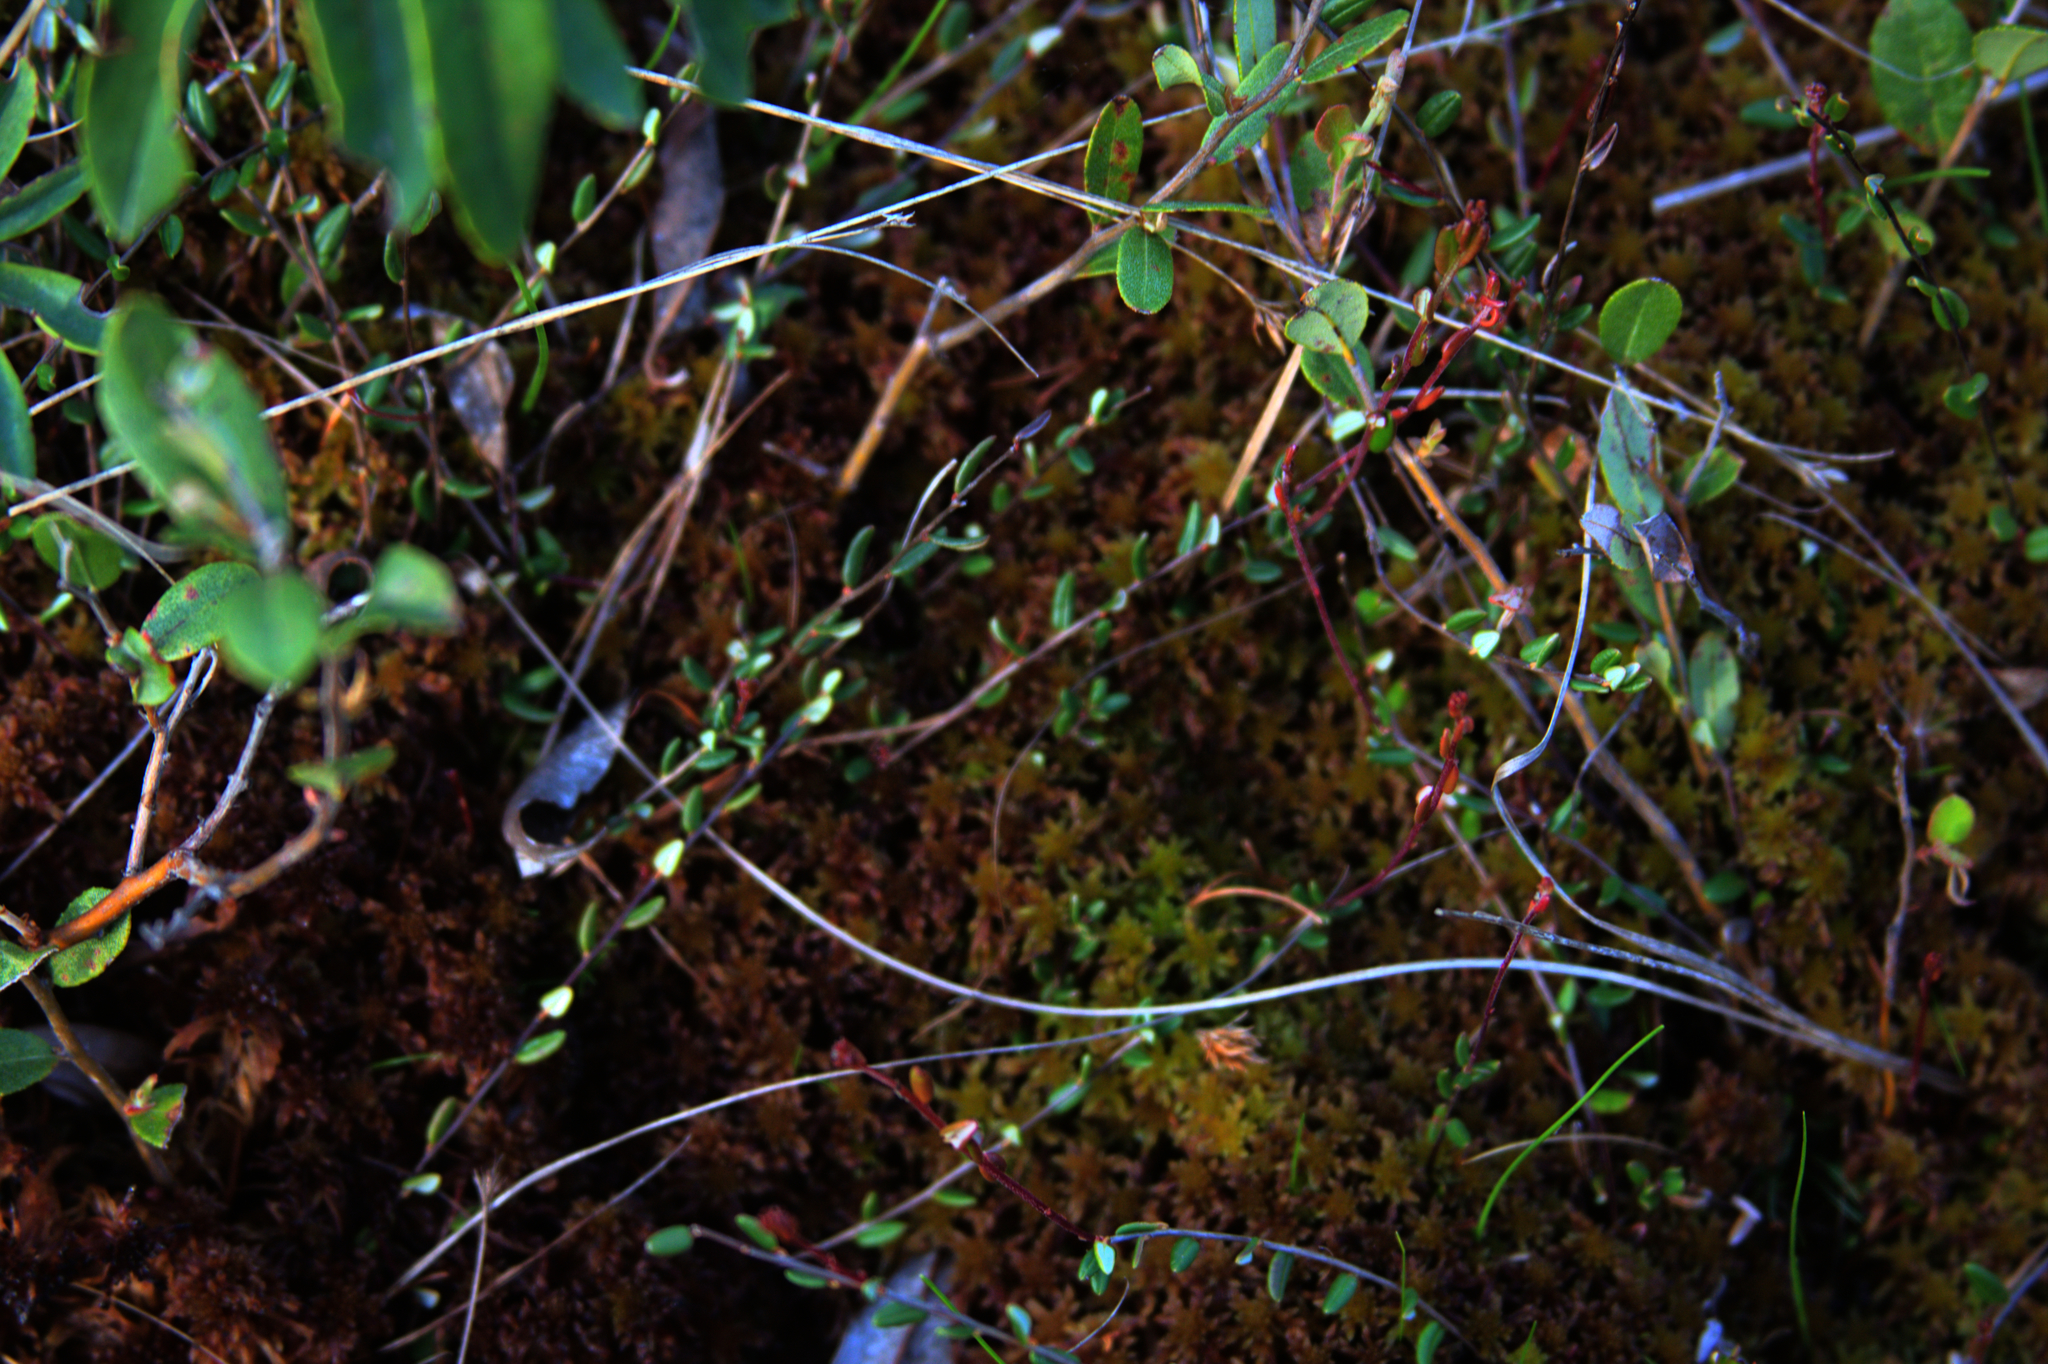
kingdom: Plantae
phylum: Tracheophyta
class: Magnoliopsida
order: Ericales
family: Ericaceae
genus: Vaccinium
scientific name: Vaccinium oxycoccos
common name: Cranberry
